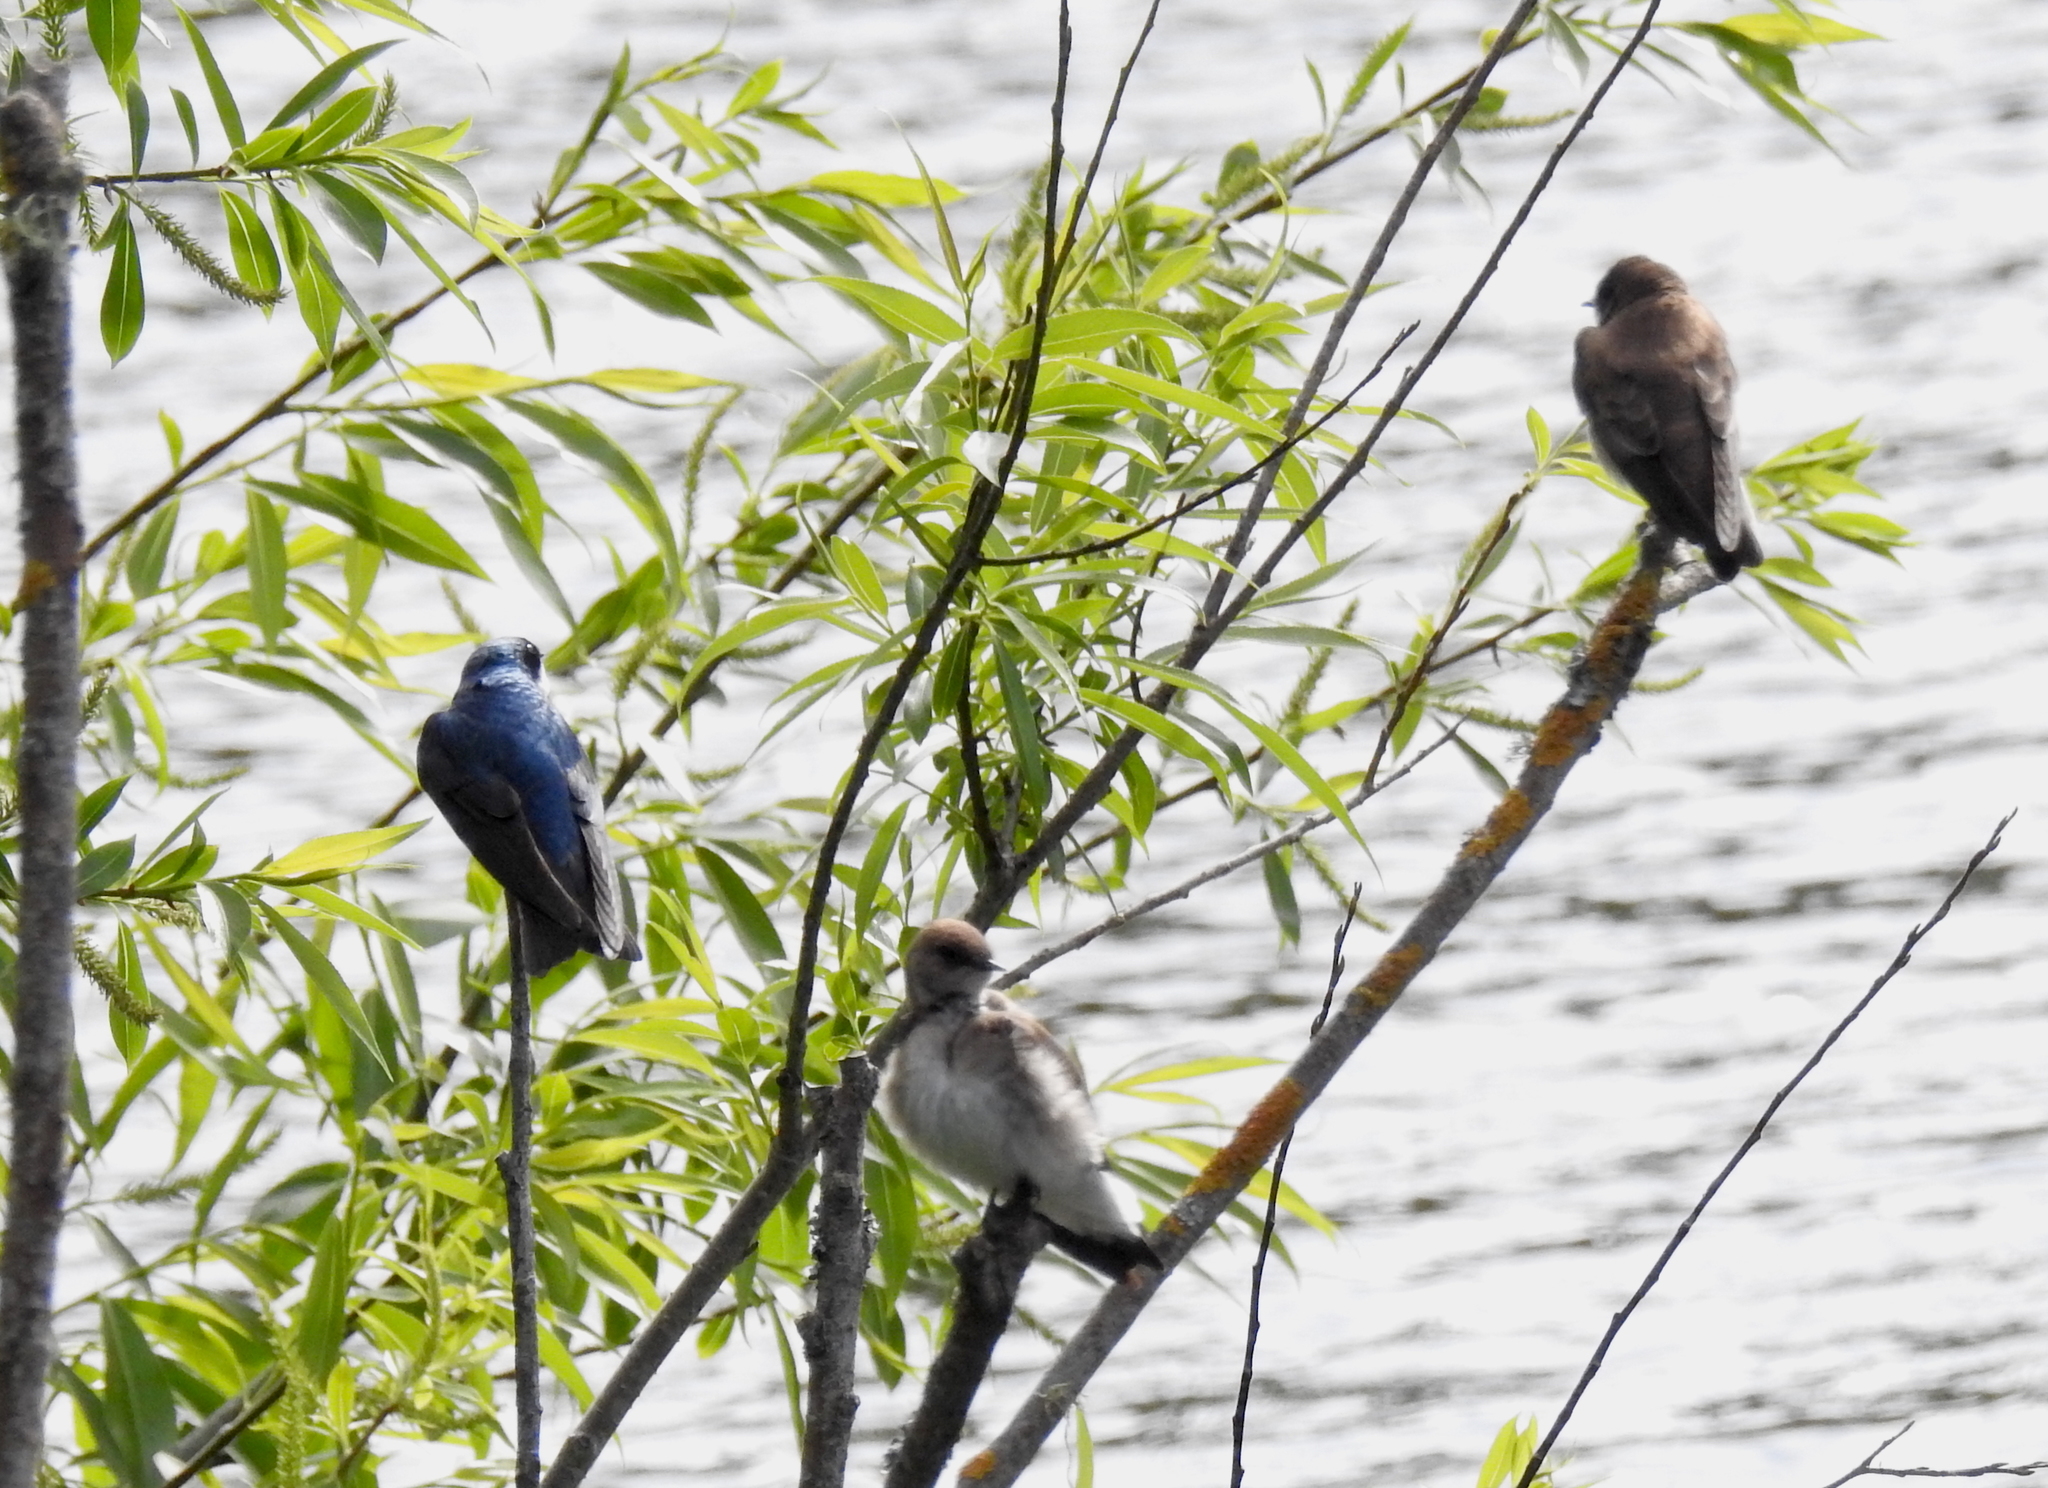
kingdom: Animalia
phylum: Chordata
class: Aves
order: Passeriformes
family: Hirundinidae
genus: Tachycineta
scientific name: Tachycineta bicolor
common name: Tree swallow
